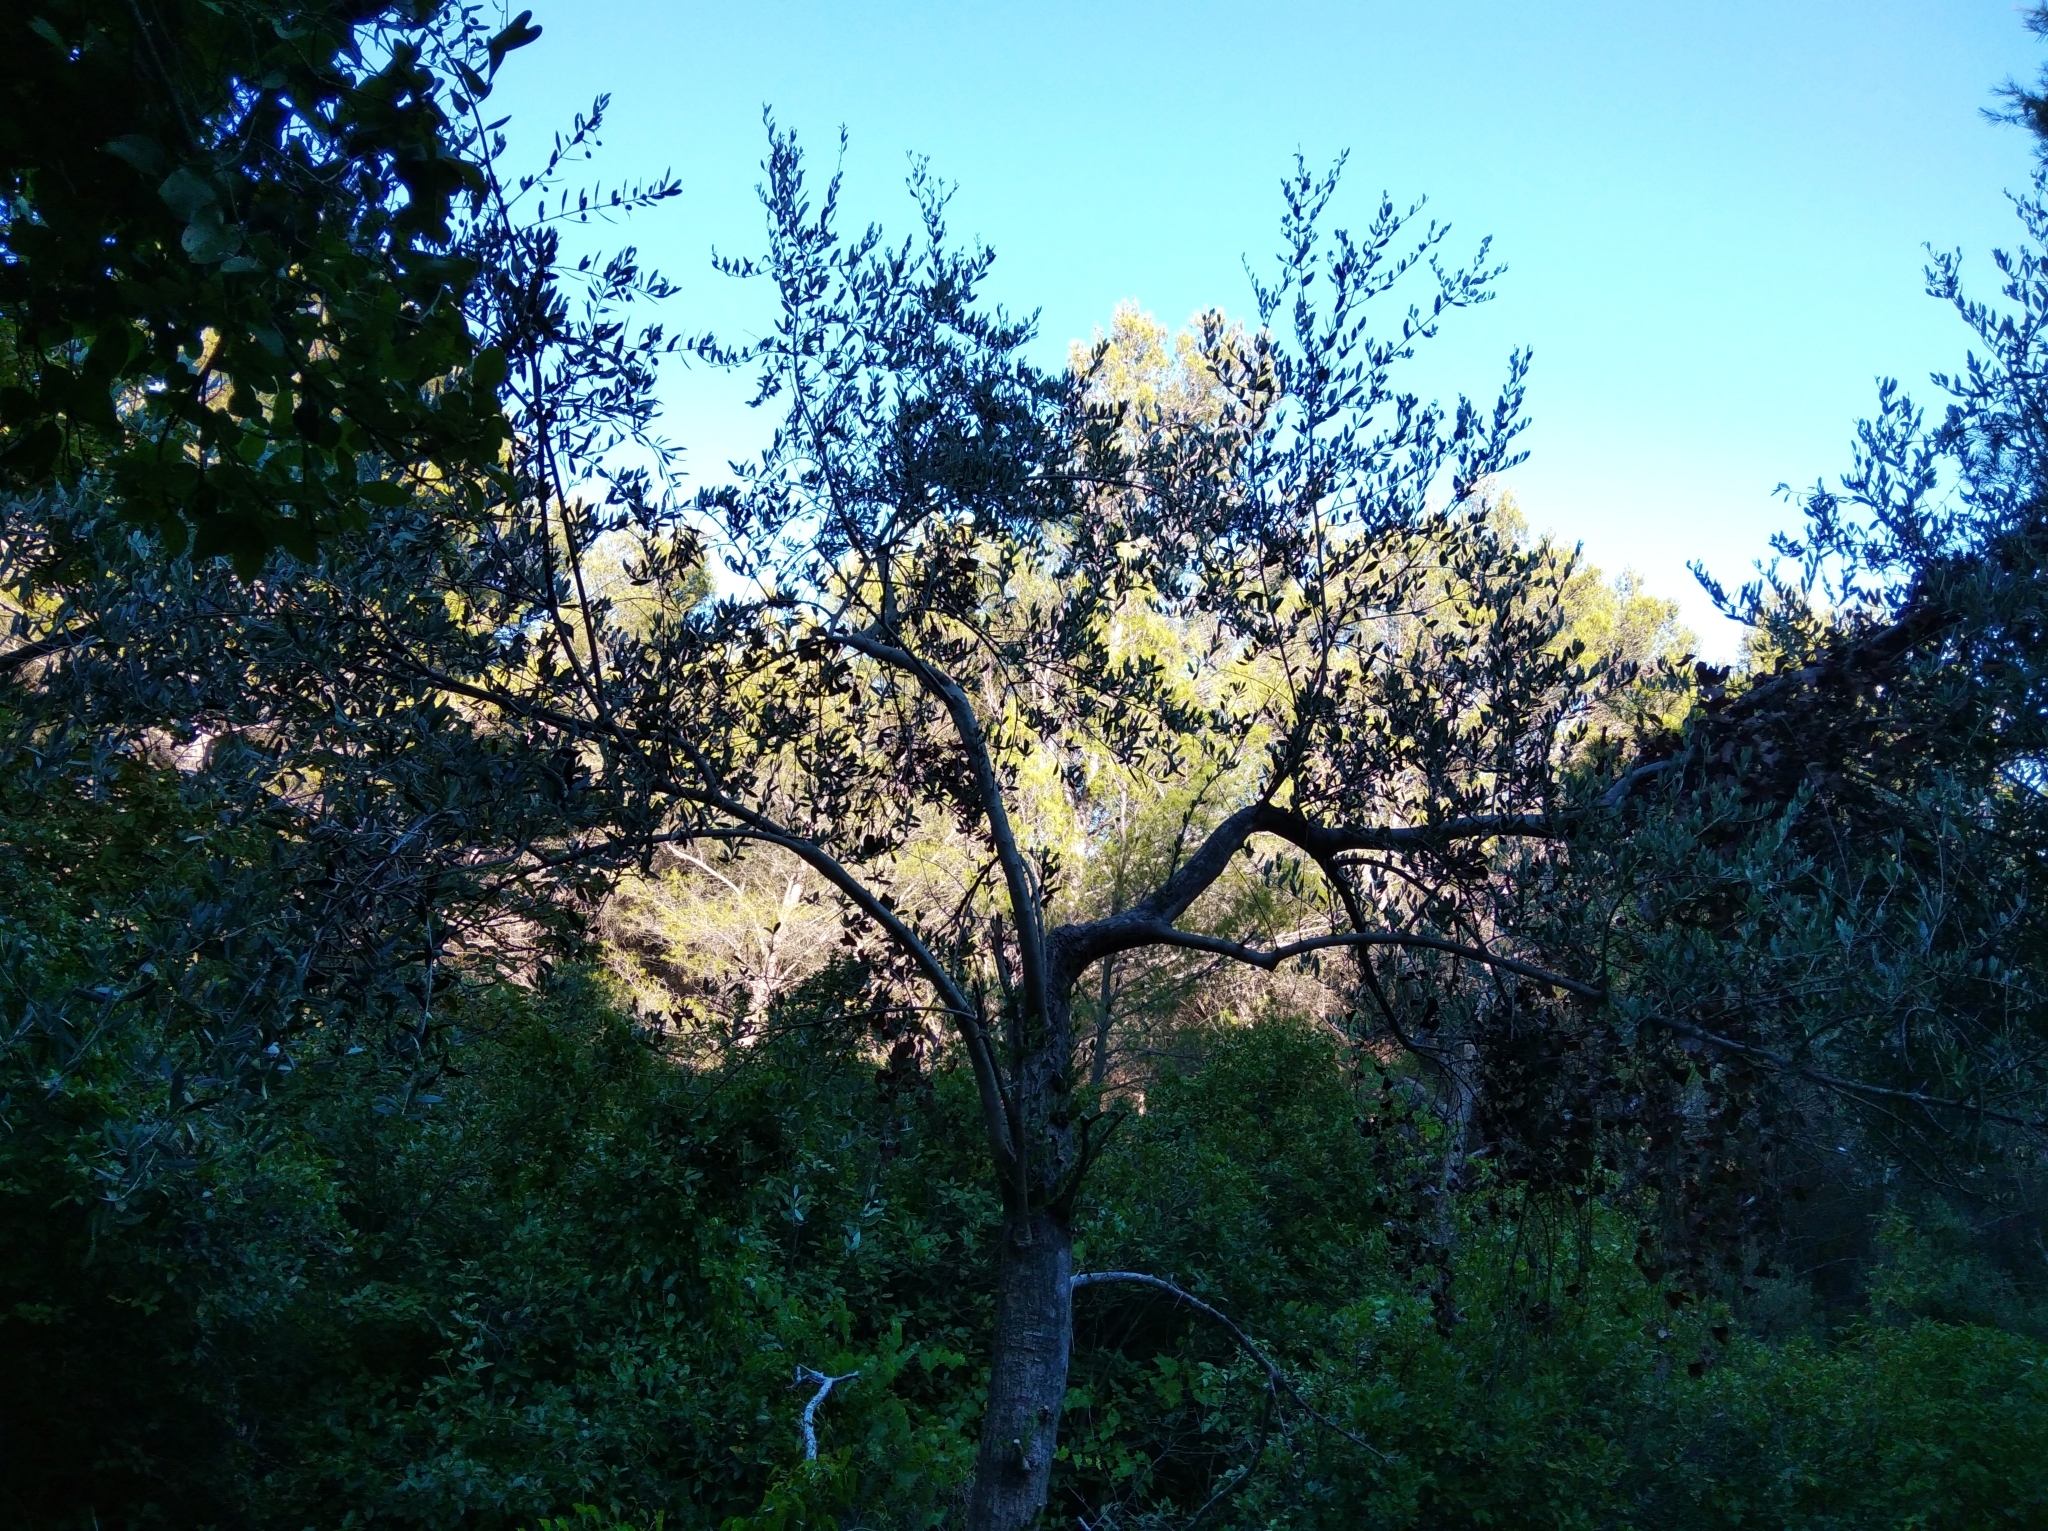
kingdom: Plantae
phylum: Tracheophyta
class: Magnoliopsida
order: Lamiales
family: Oleaceae
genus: Olea
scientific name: Olea europaea
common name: Olive
